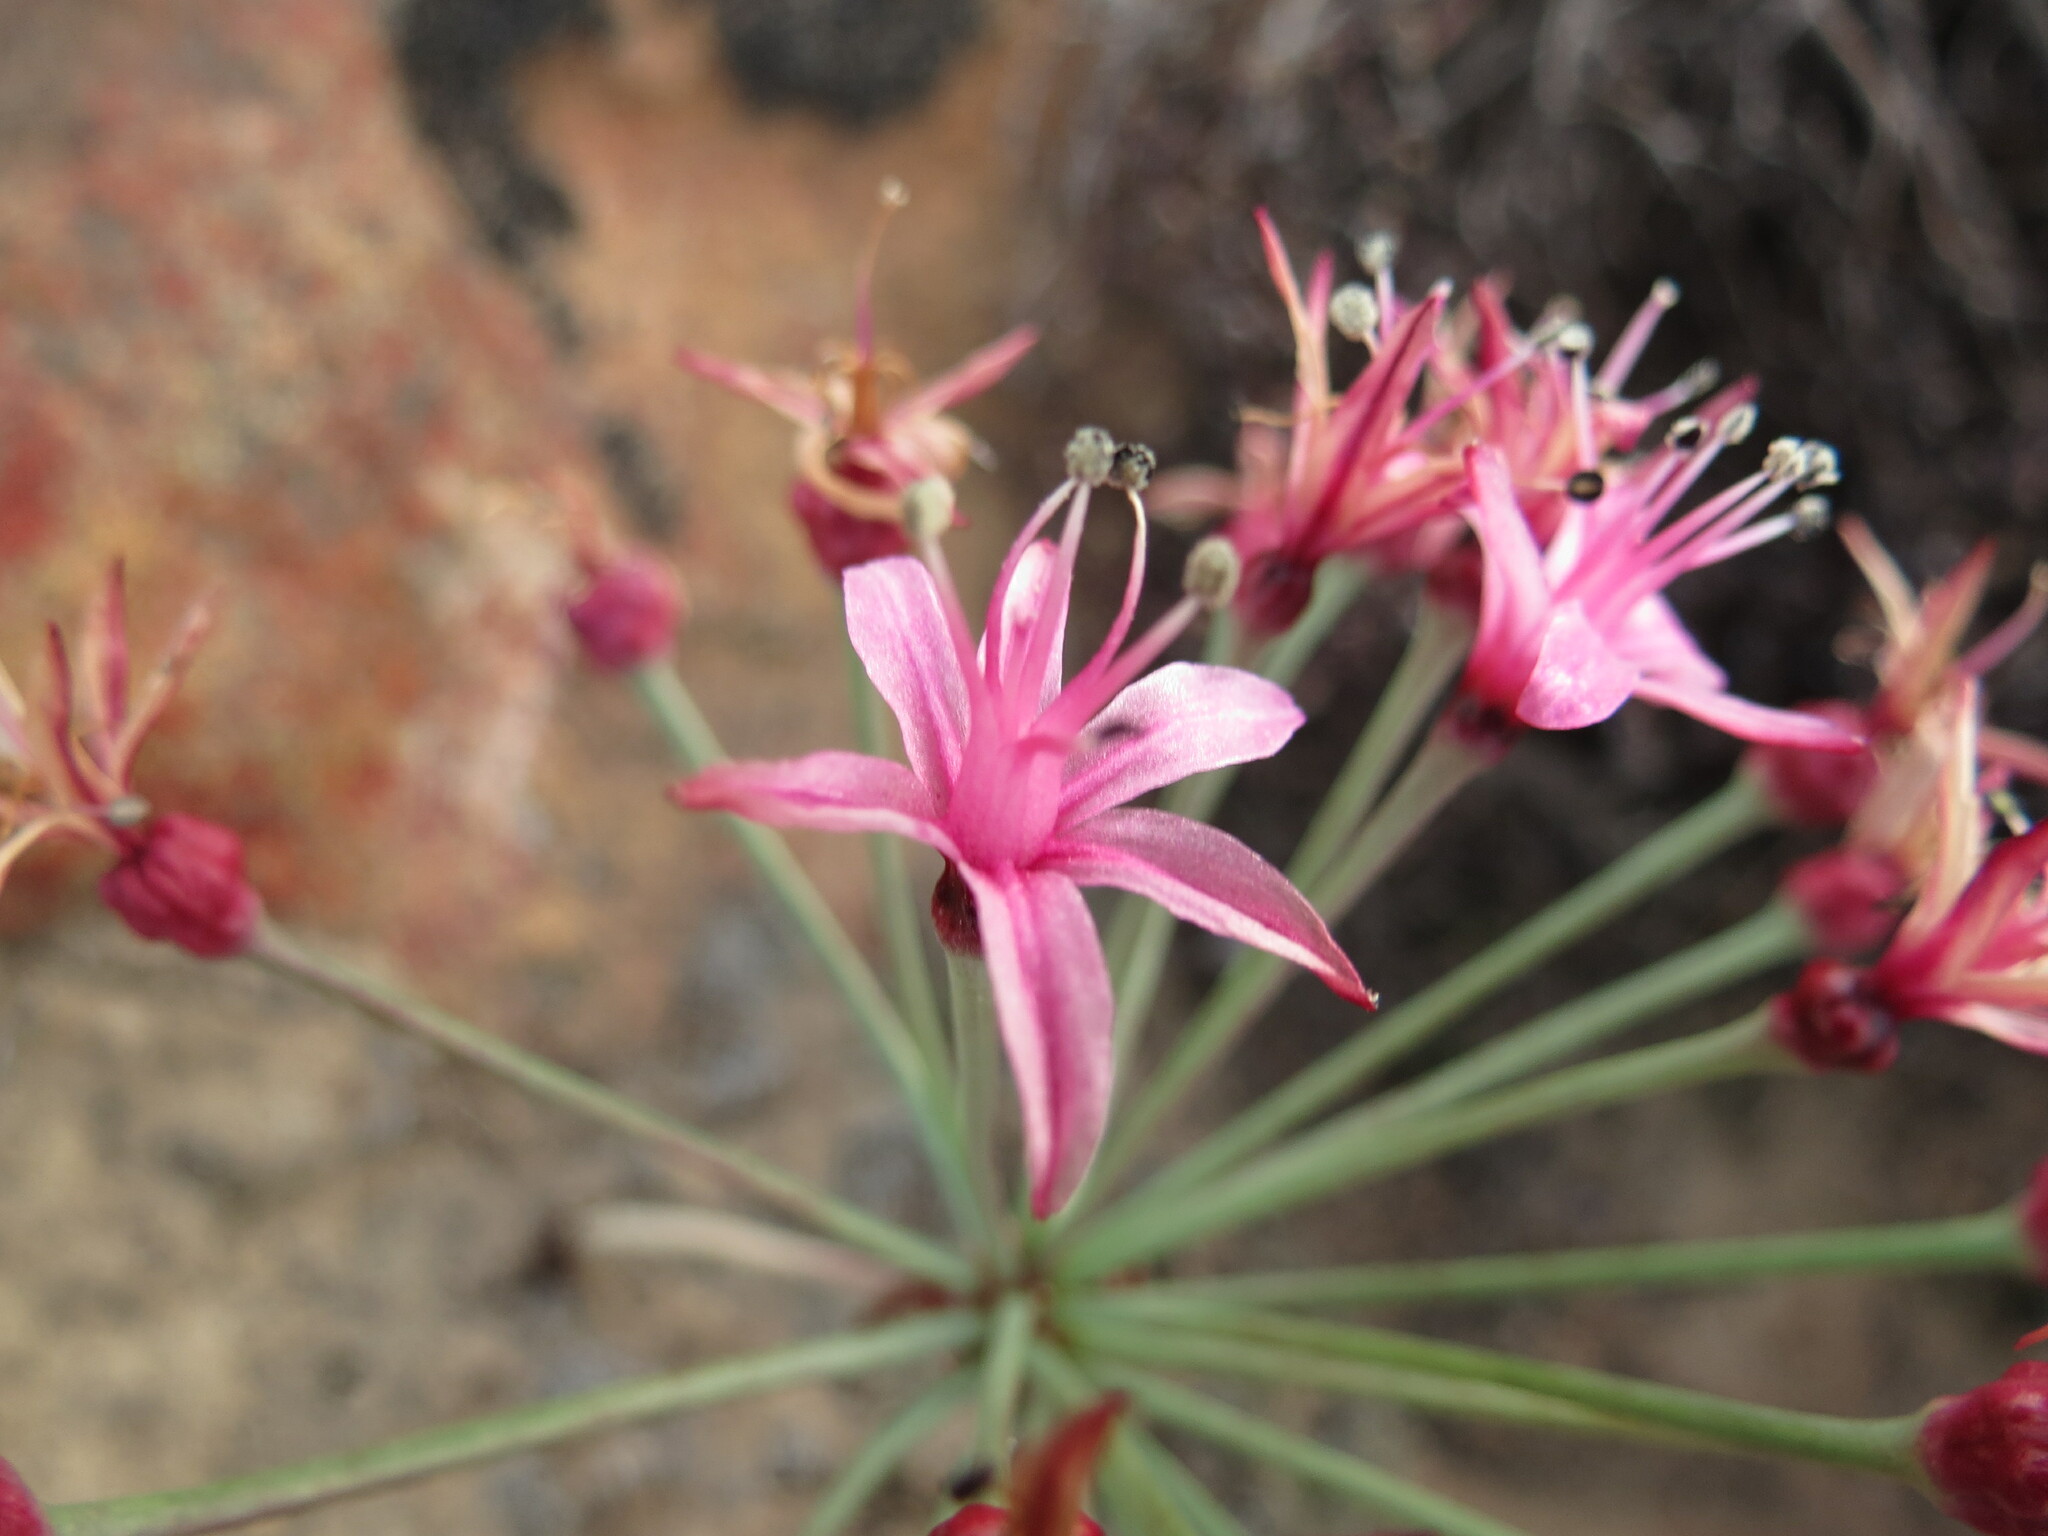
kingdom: Plantae
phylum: Tracheophyta
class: Liliopsida
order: Asparagales
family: Amaryllidaceae
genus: Hessea
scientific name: Hessea breviflora
